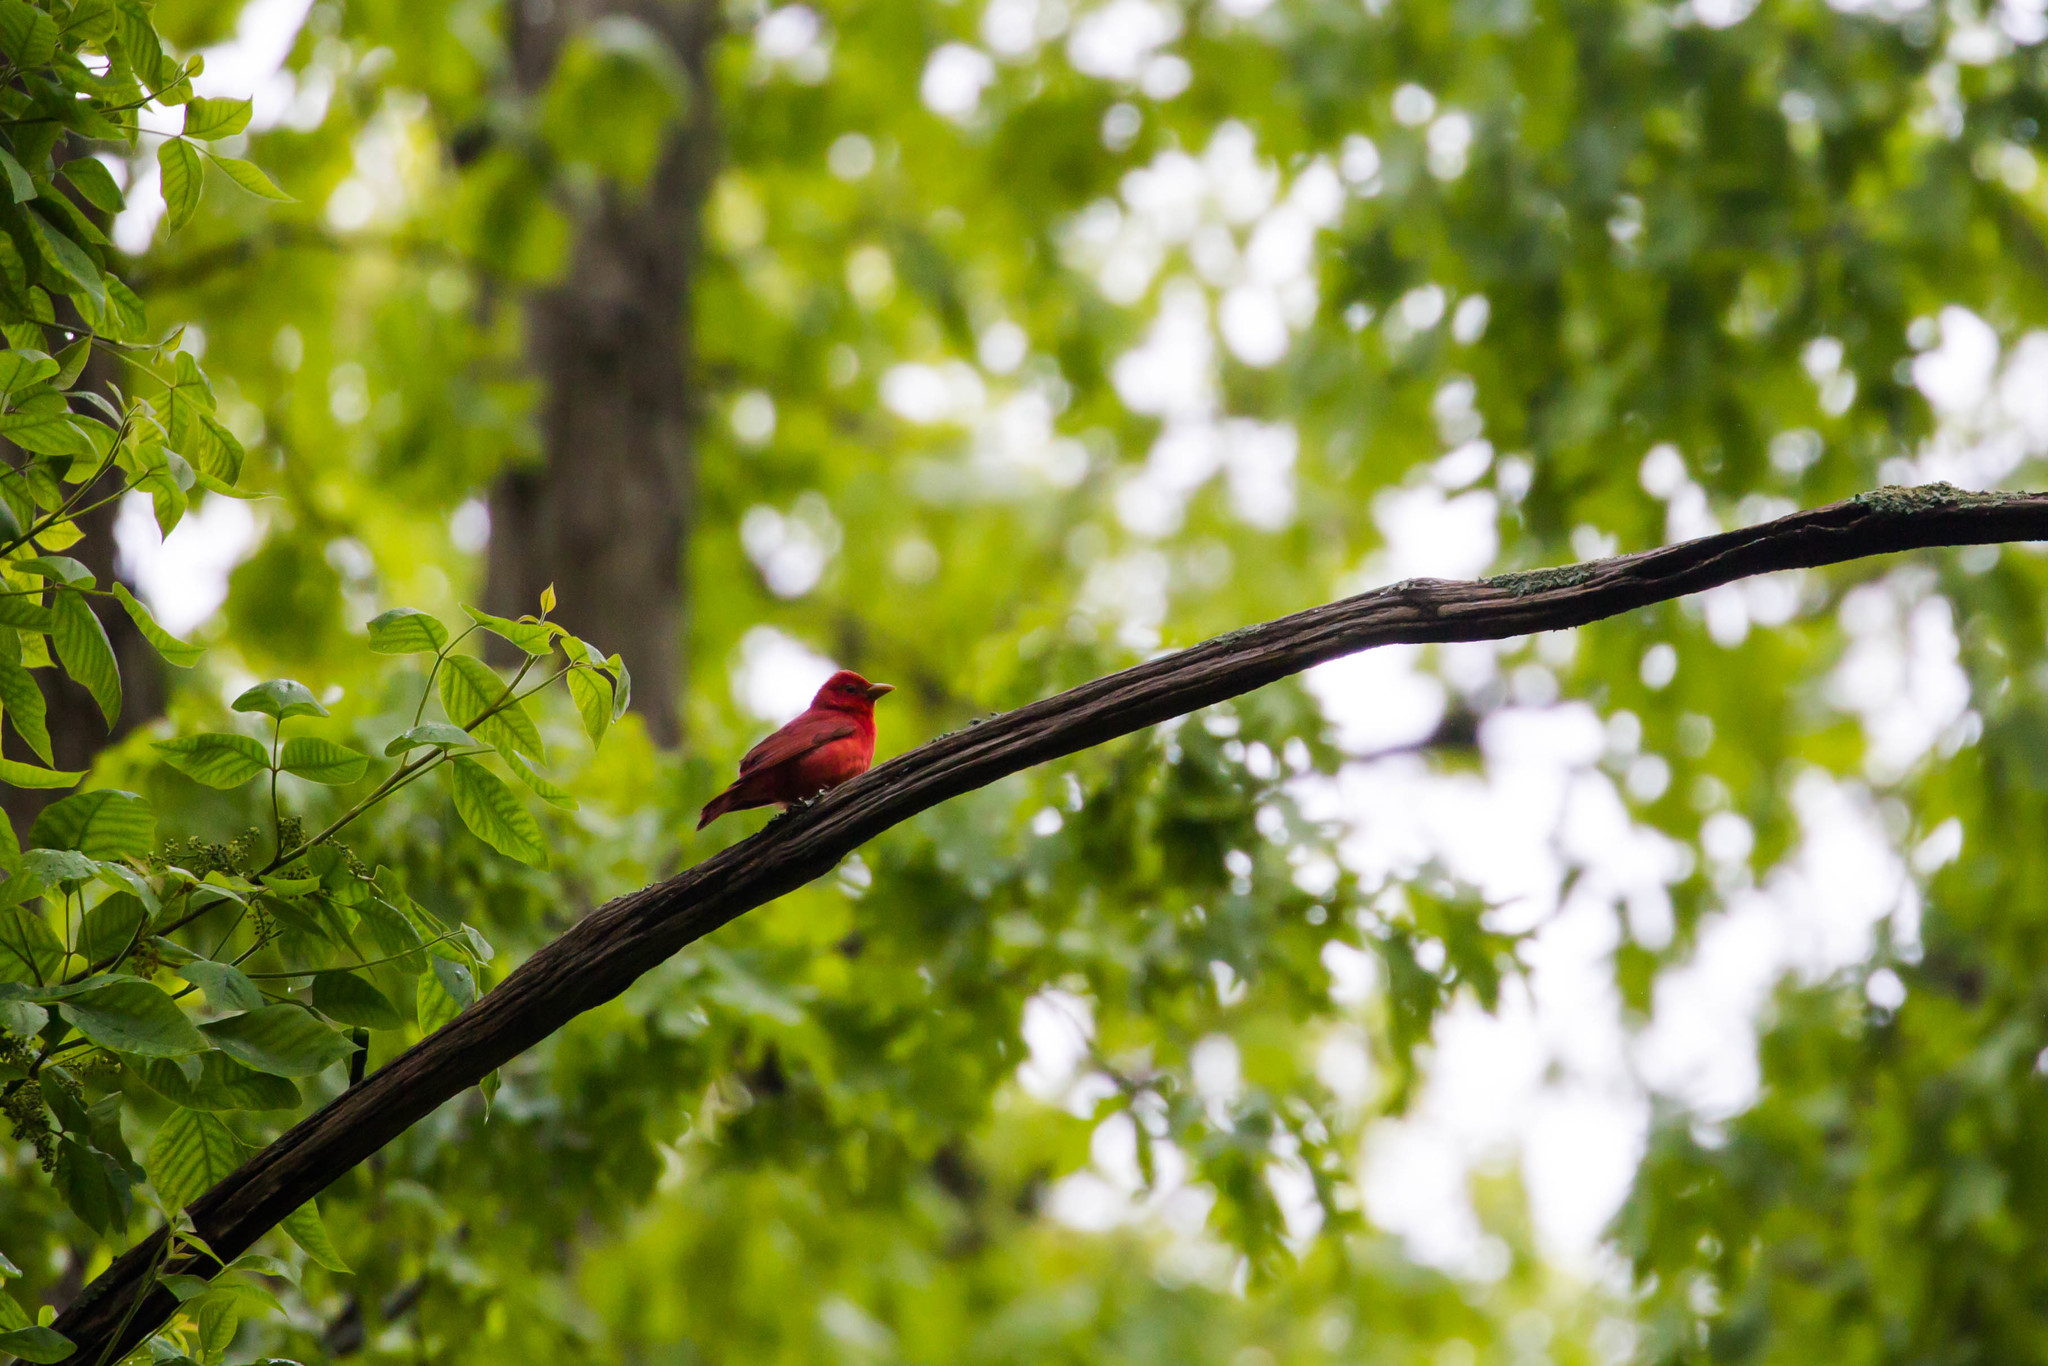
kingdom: Animalia
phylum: Chordata
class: Aves
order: Passeriformes
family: Cardinalidae
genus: Piranga
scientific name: Piranga rubra
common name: Summer tanager
